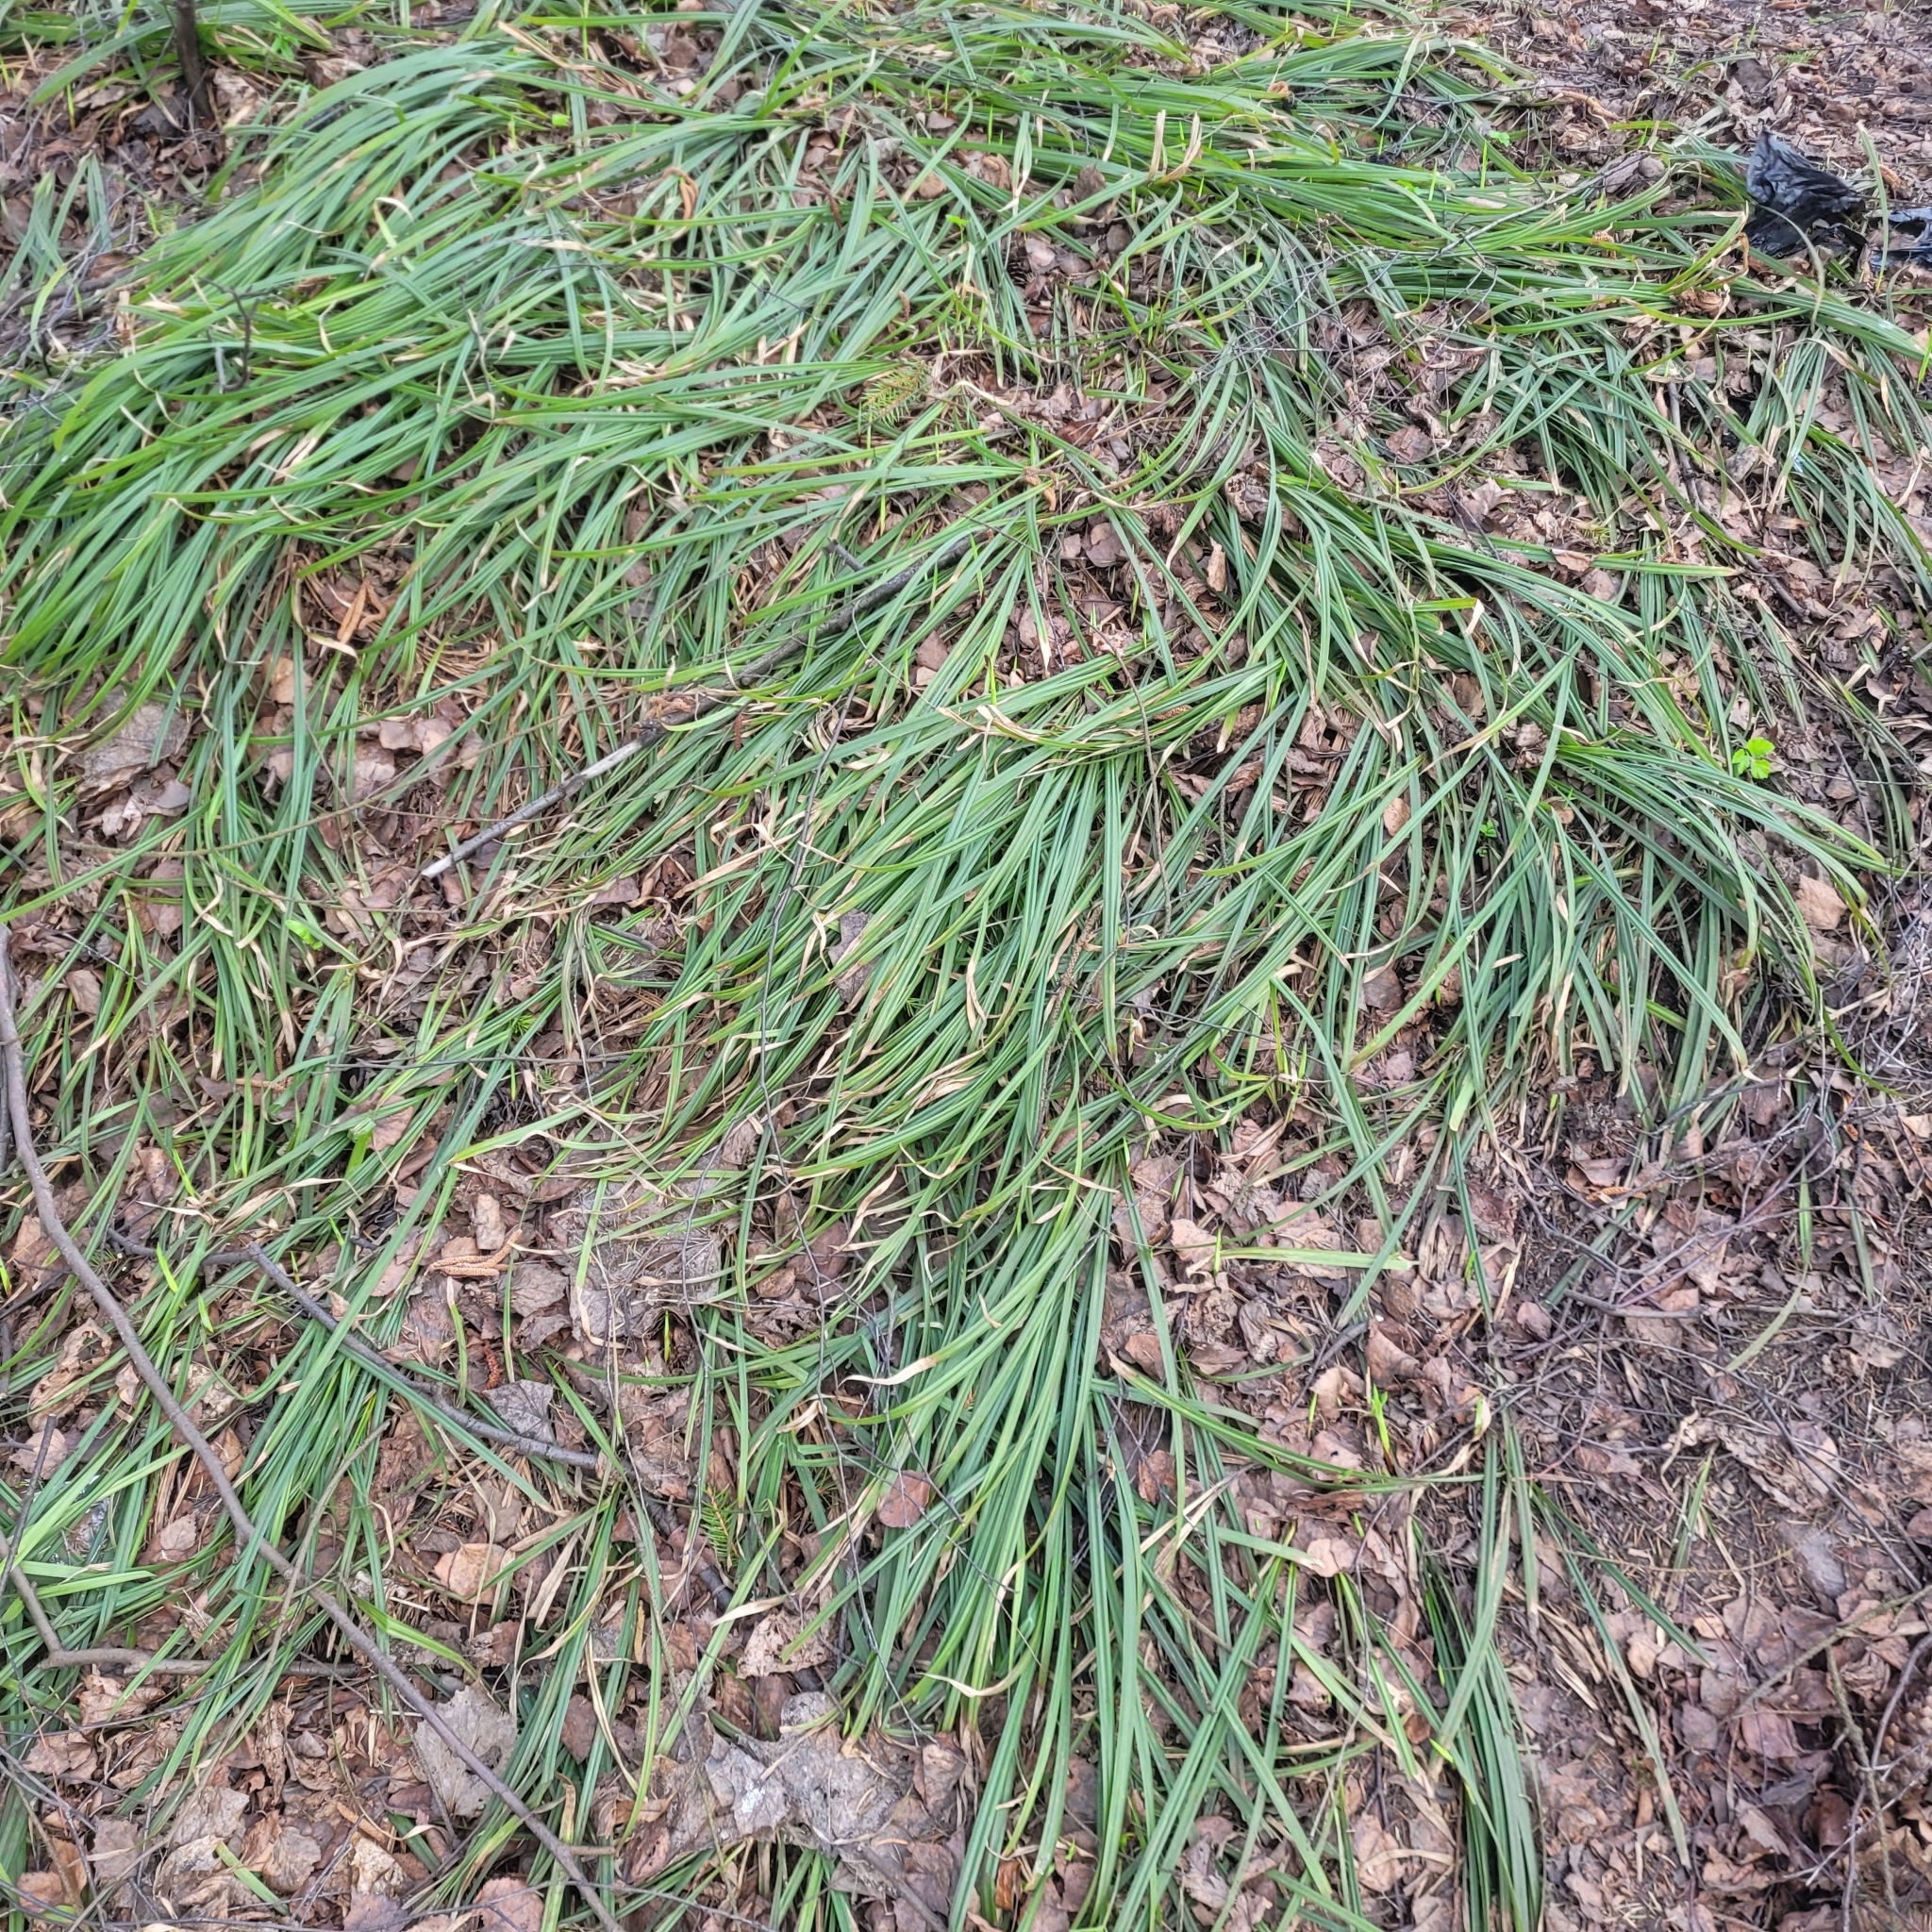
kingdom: Plantae
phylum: Tracheophyta
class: Liliopsida
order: Poales
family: Cyperaceae
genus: Carex
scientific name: Carex pilosa
